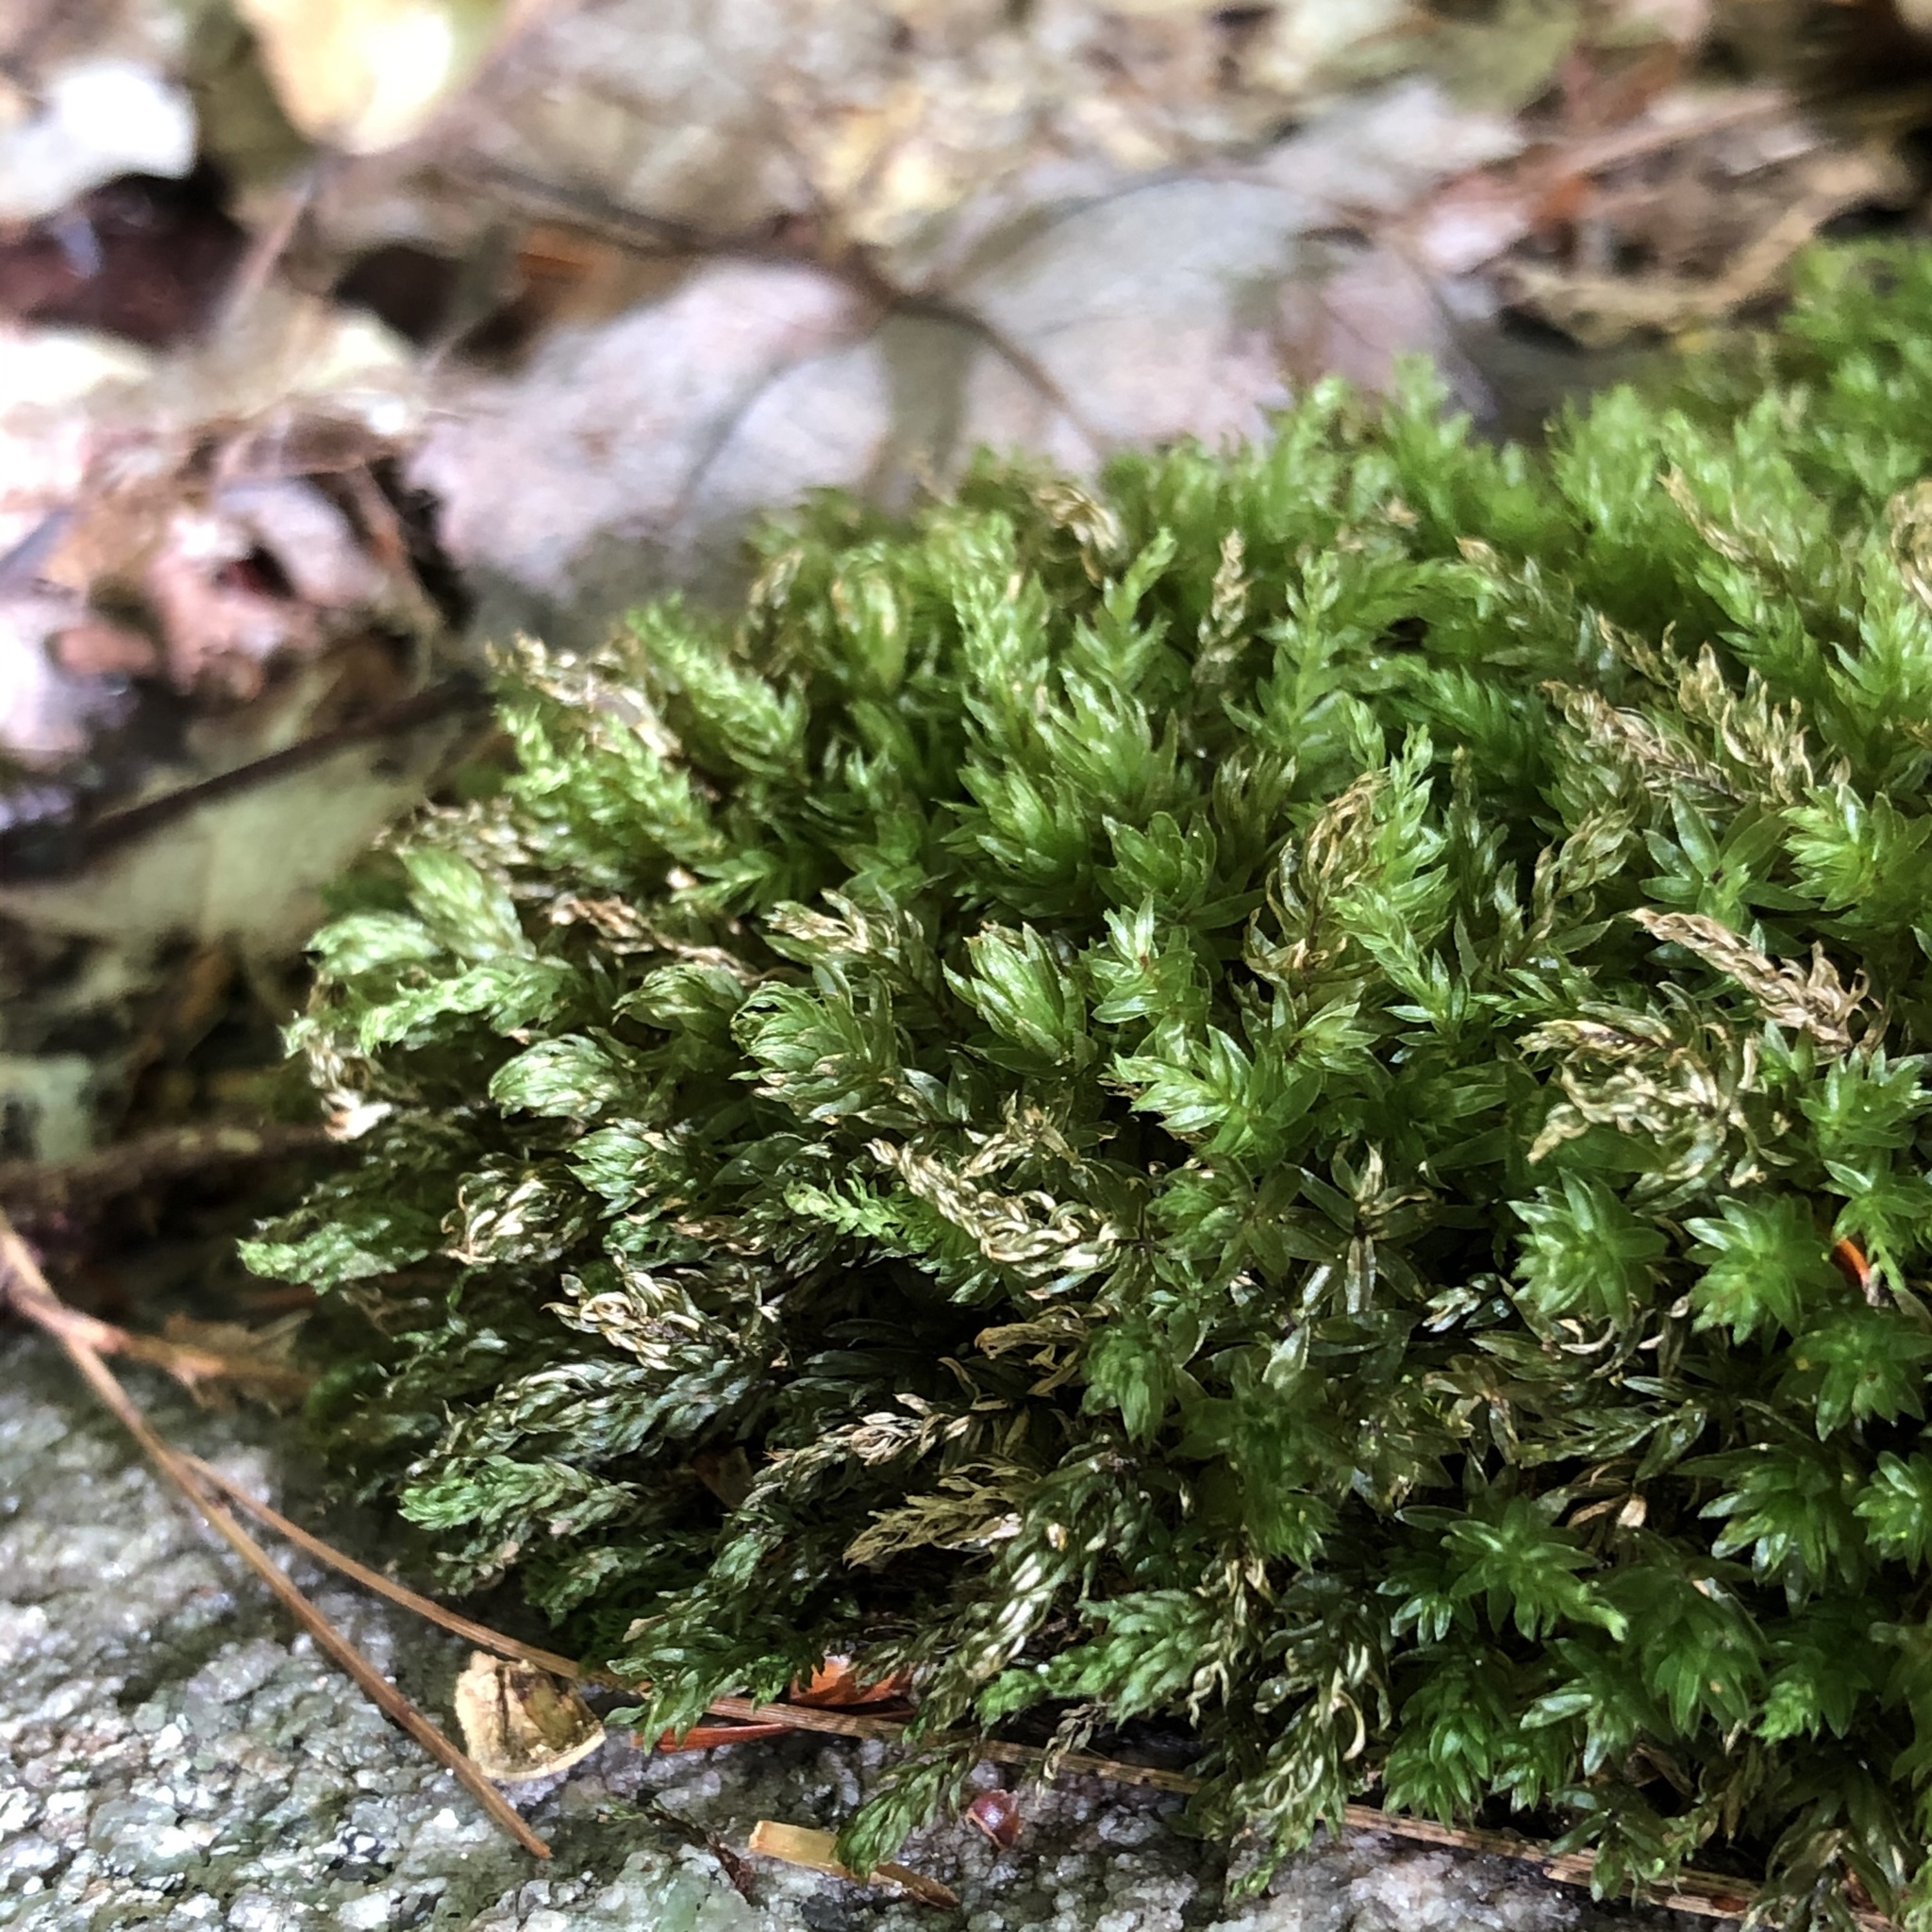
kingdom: Plantae
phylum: Bryophyta
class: Bryopsida
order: Bryales
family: Mniaceae
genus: Mnium
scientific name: Mnium
